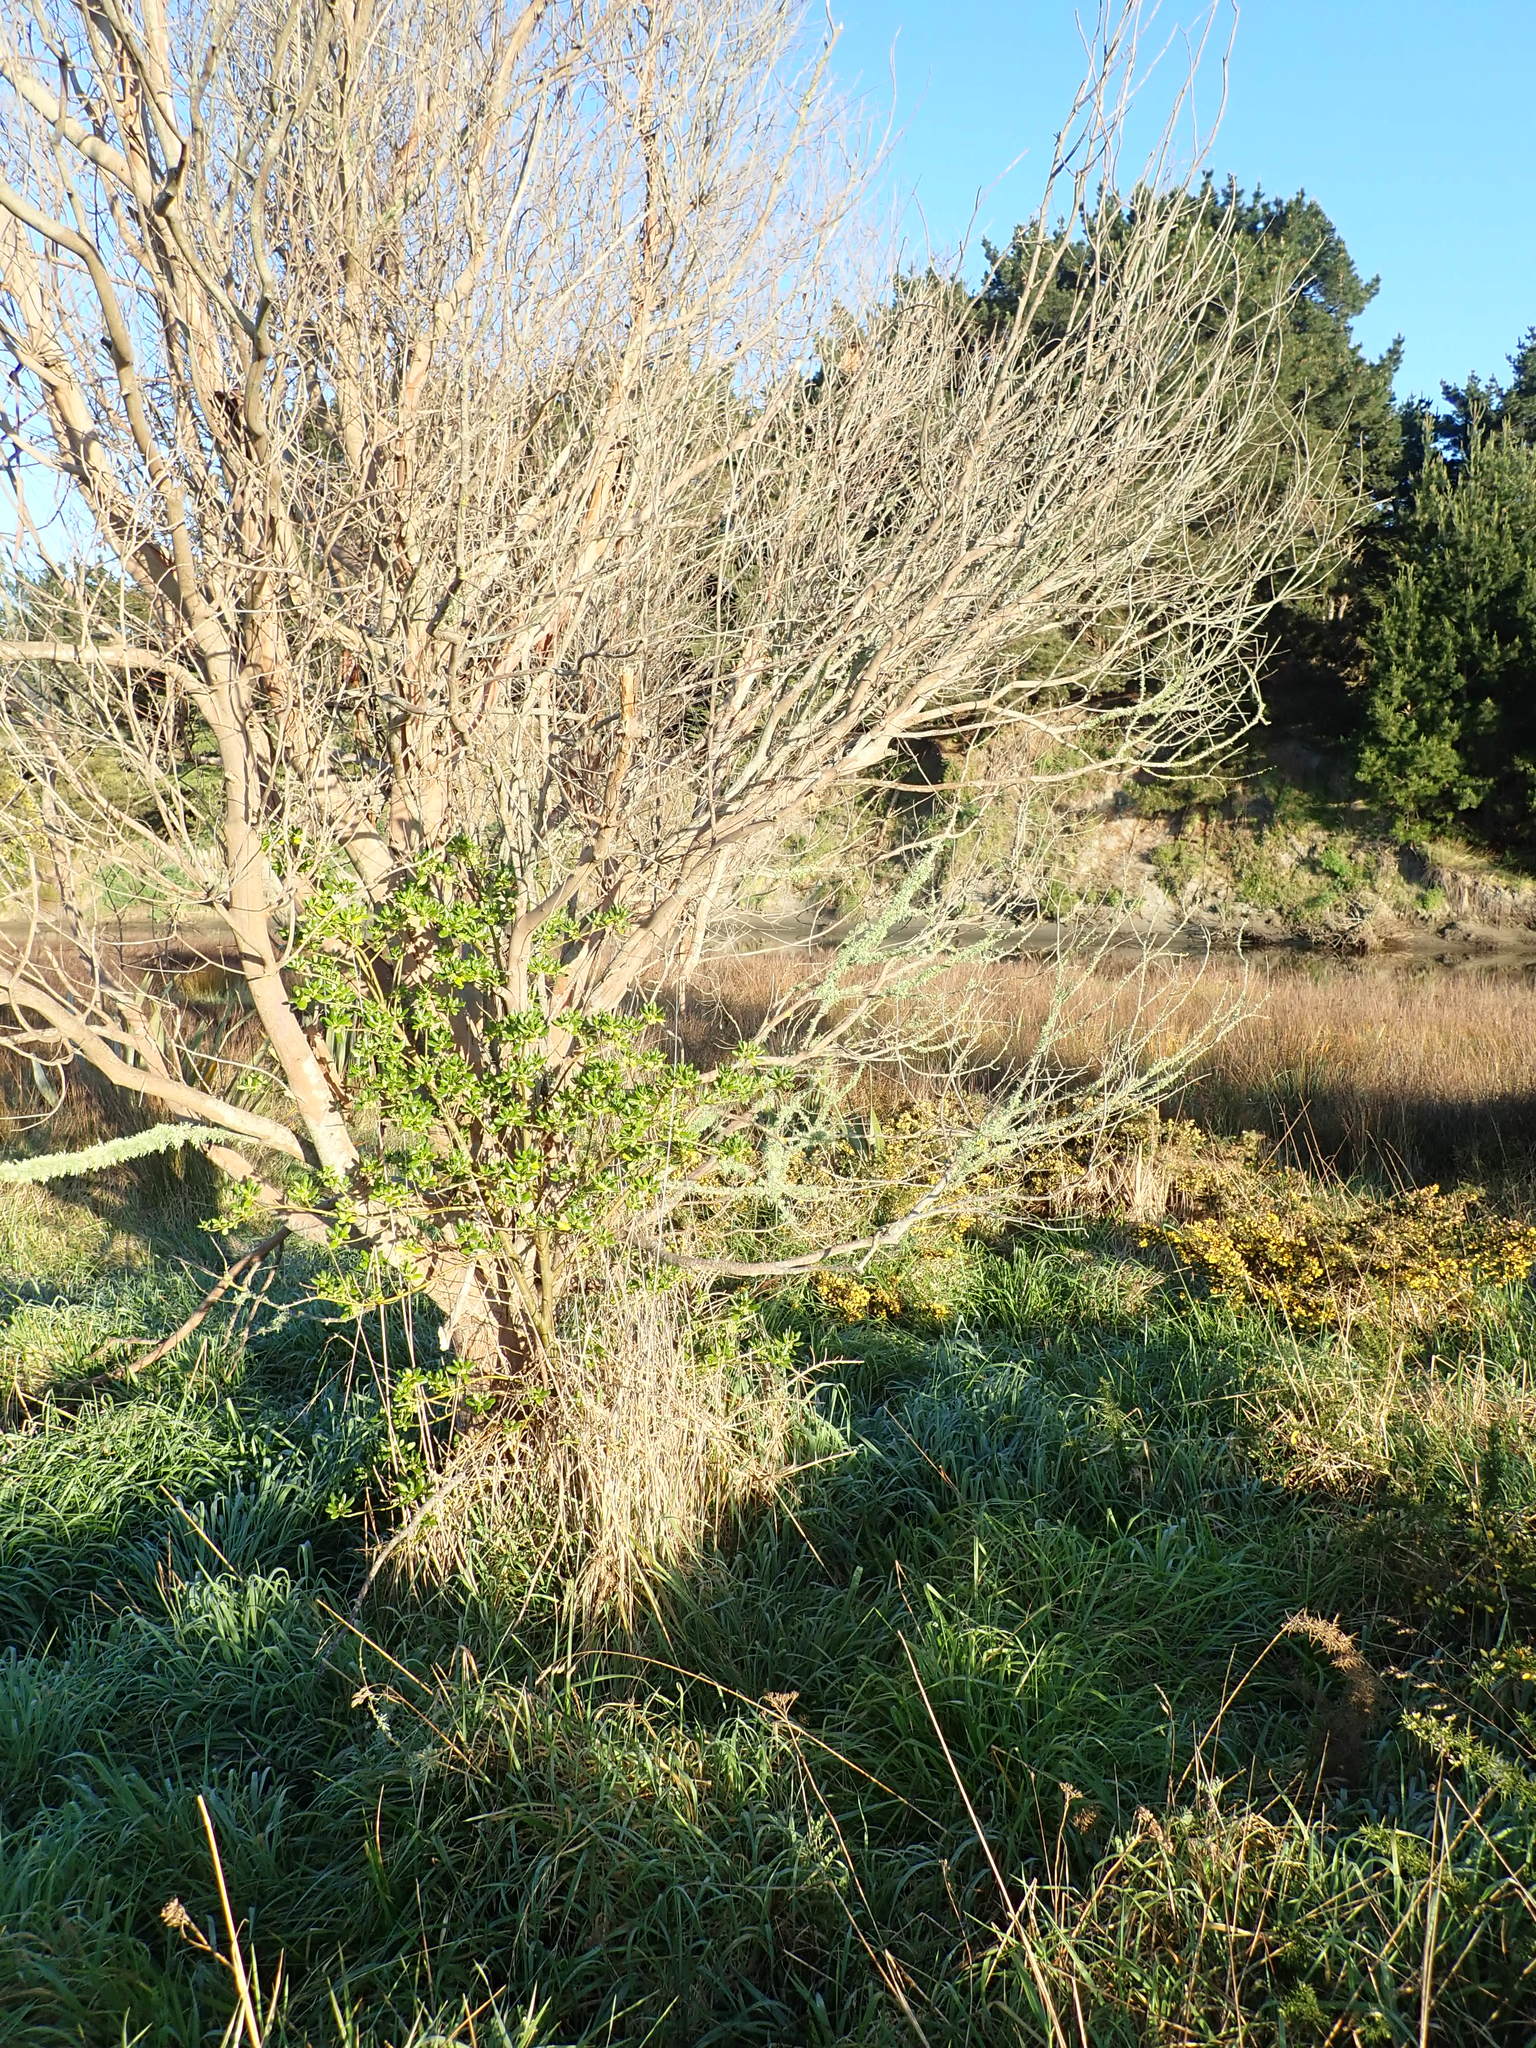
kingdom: Plantae
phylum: Tracheophyta
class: Magnoliopsida
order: Gentianales
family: Rubiaceae
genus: Coprosma
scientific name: Coprosma repens
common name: Tree bedstraw
